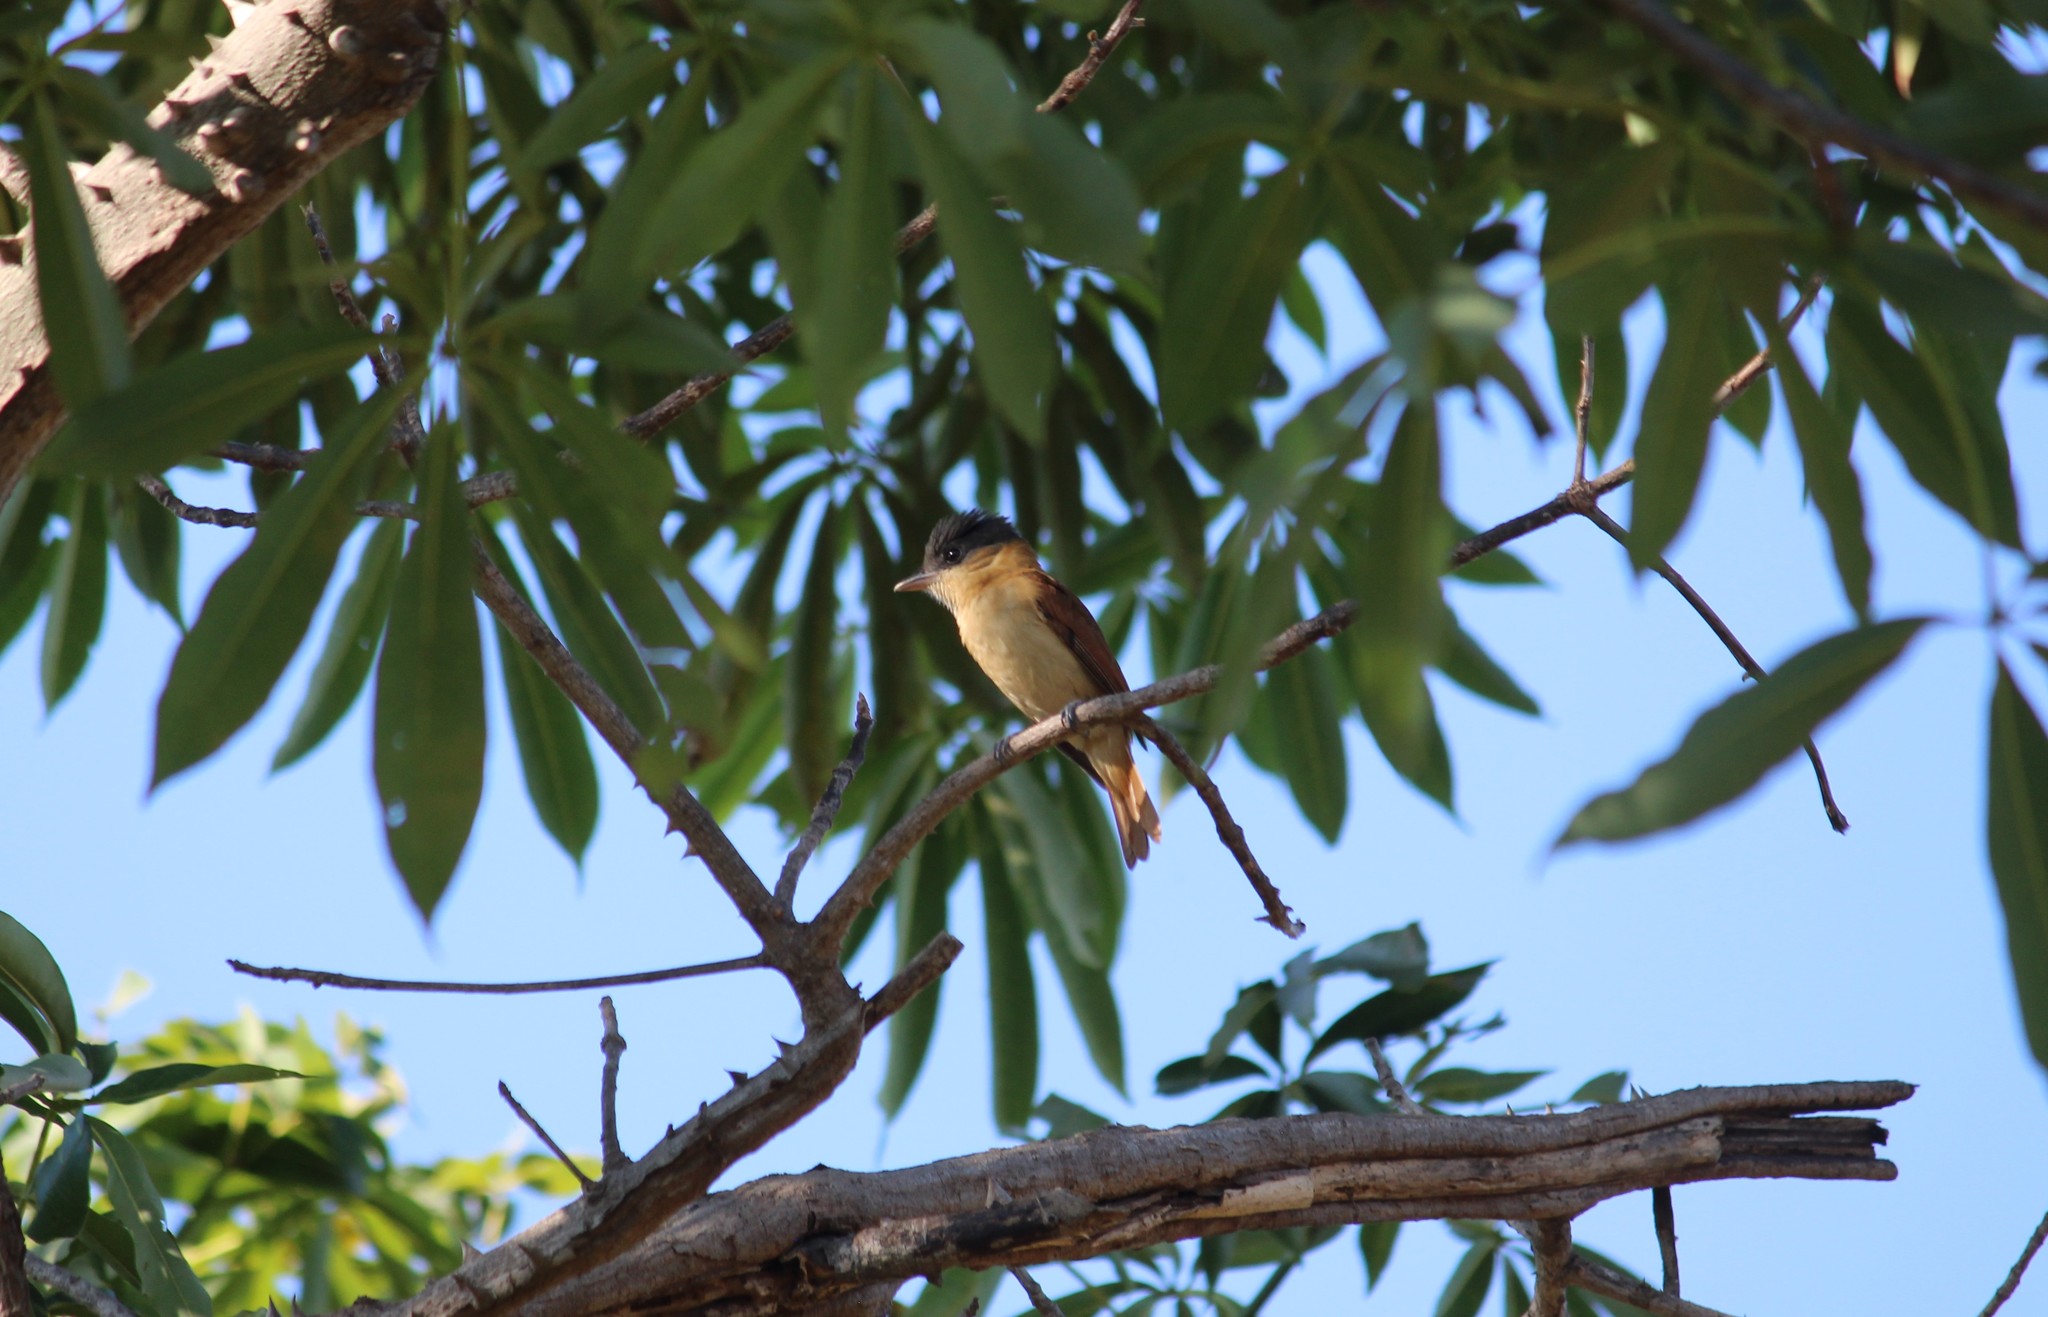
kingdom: Animalia
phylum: Chordata
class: Aves
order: Passeriformes
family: Cotingidae
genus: Pachyramphus
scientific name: Pachyramphus aglaiae
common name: Rose-throated becard
